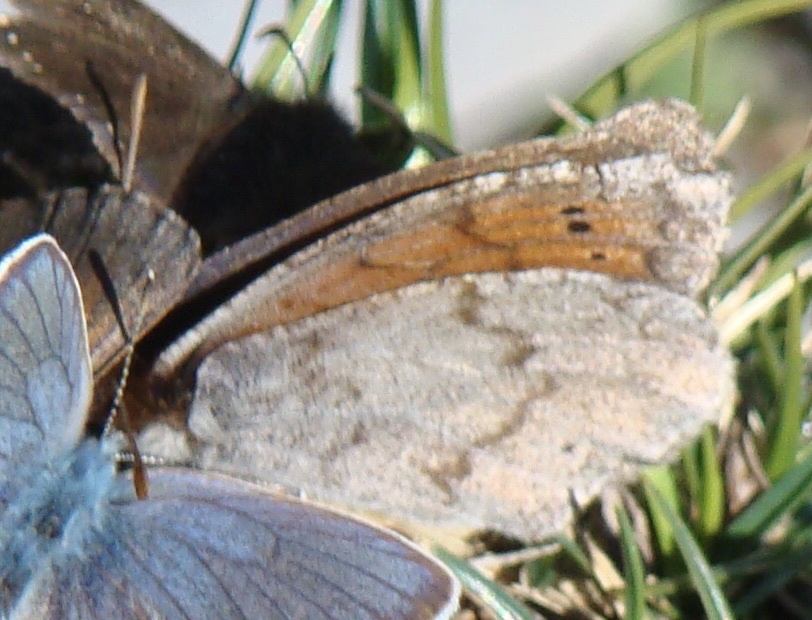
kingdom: Animalia
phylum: Arthropoda
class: Insecta
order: Lepidoptera
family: Nymphalidae
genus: Erebia
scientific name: Erebia pandrose
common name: Dewy ringlet
